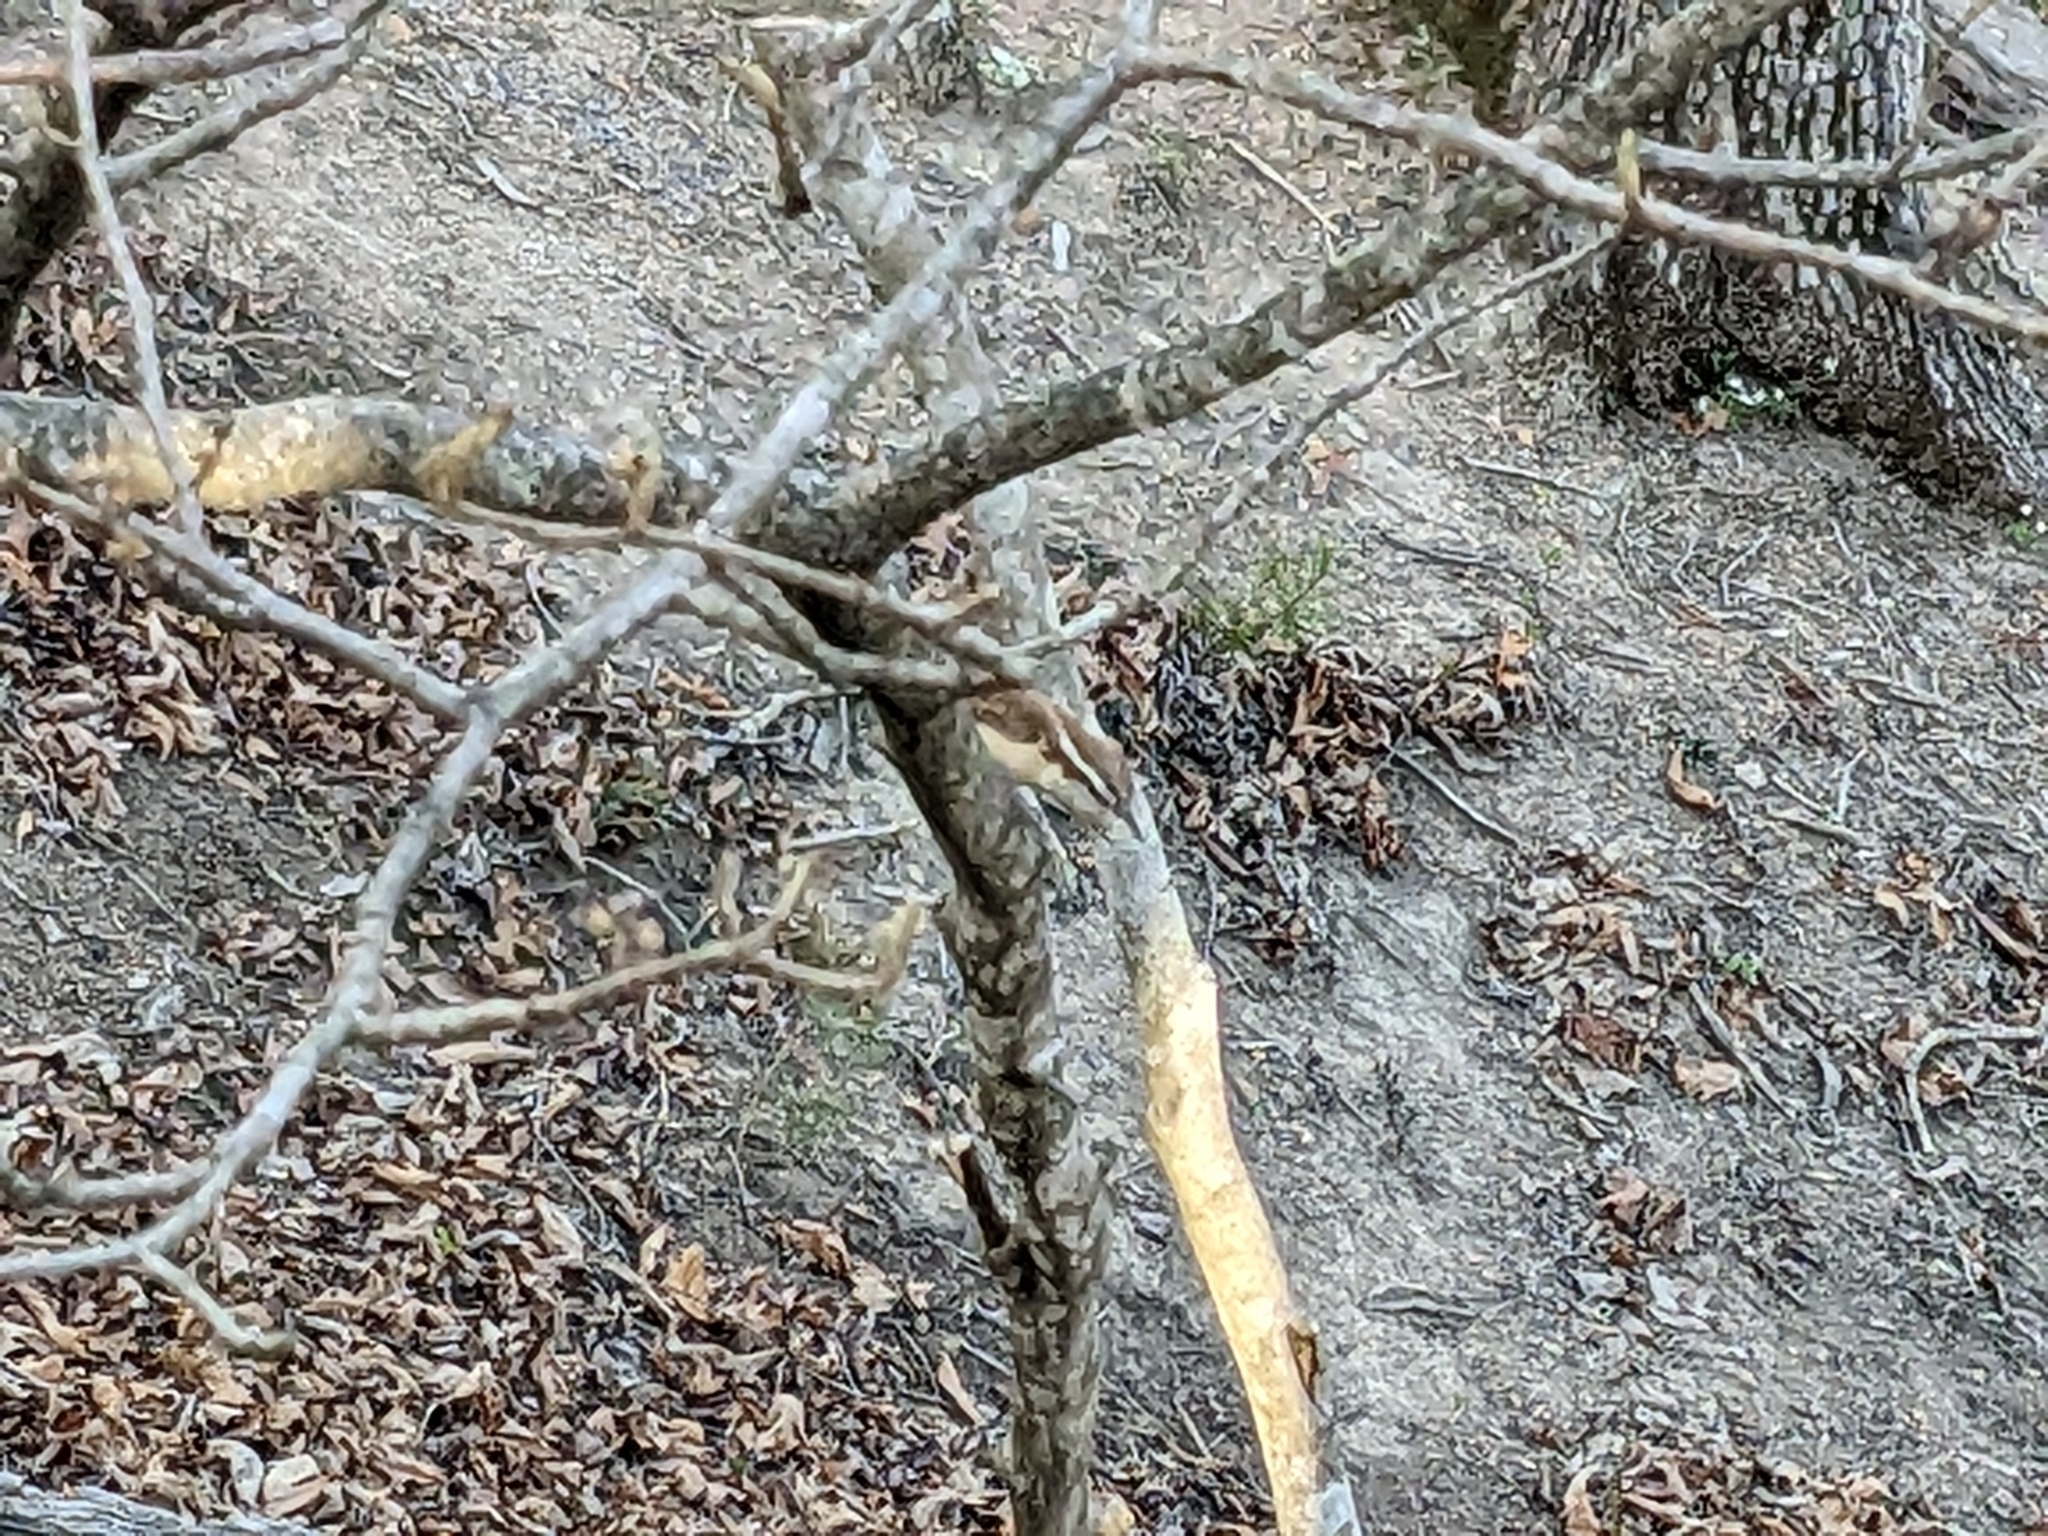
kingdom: Animalia
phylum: Chordata
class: Aves
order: Passeriformes
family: Troglodytidae
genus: Thryothorus
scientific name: Thryothorus ludovicianus
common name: Carolina wren
